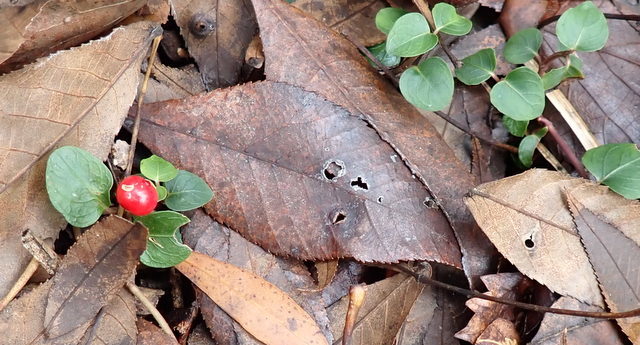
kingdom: Plantae
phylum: Tracheophyta
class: Magnoliopsida
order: Gentianales
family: Rubiaceae
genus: Mitchella
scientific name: Mitchella repens
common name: Partridge-berry
